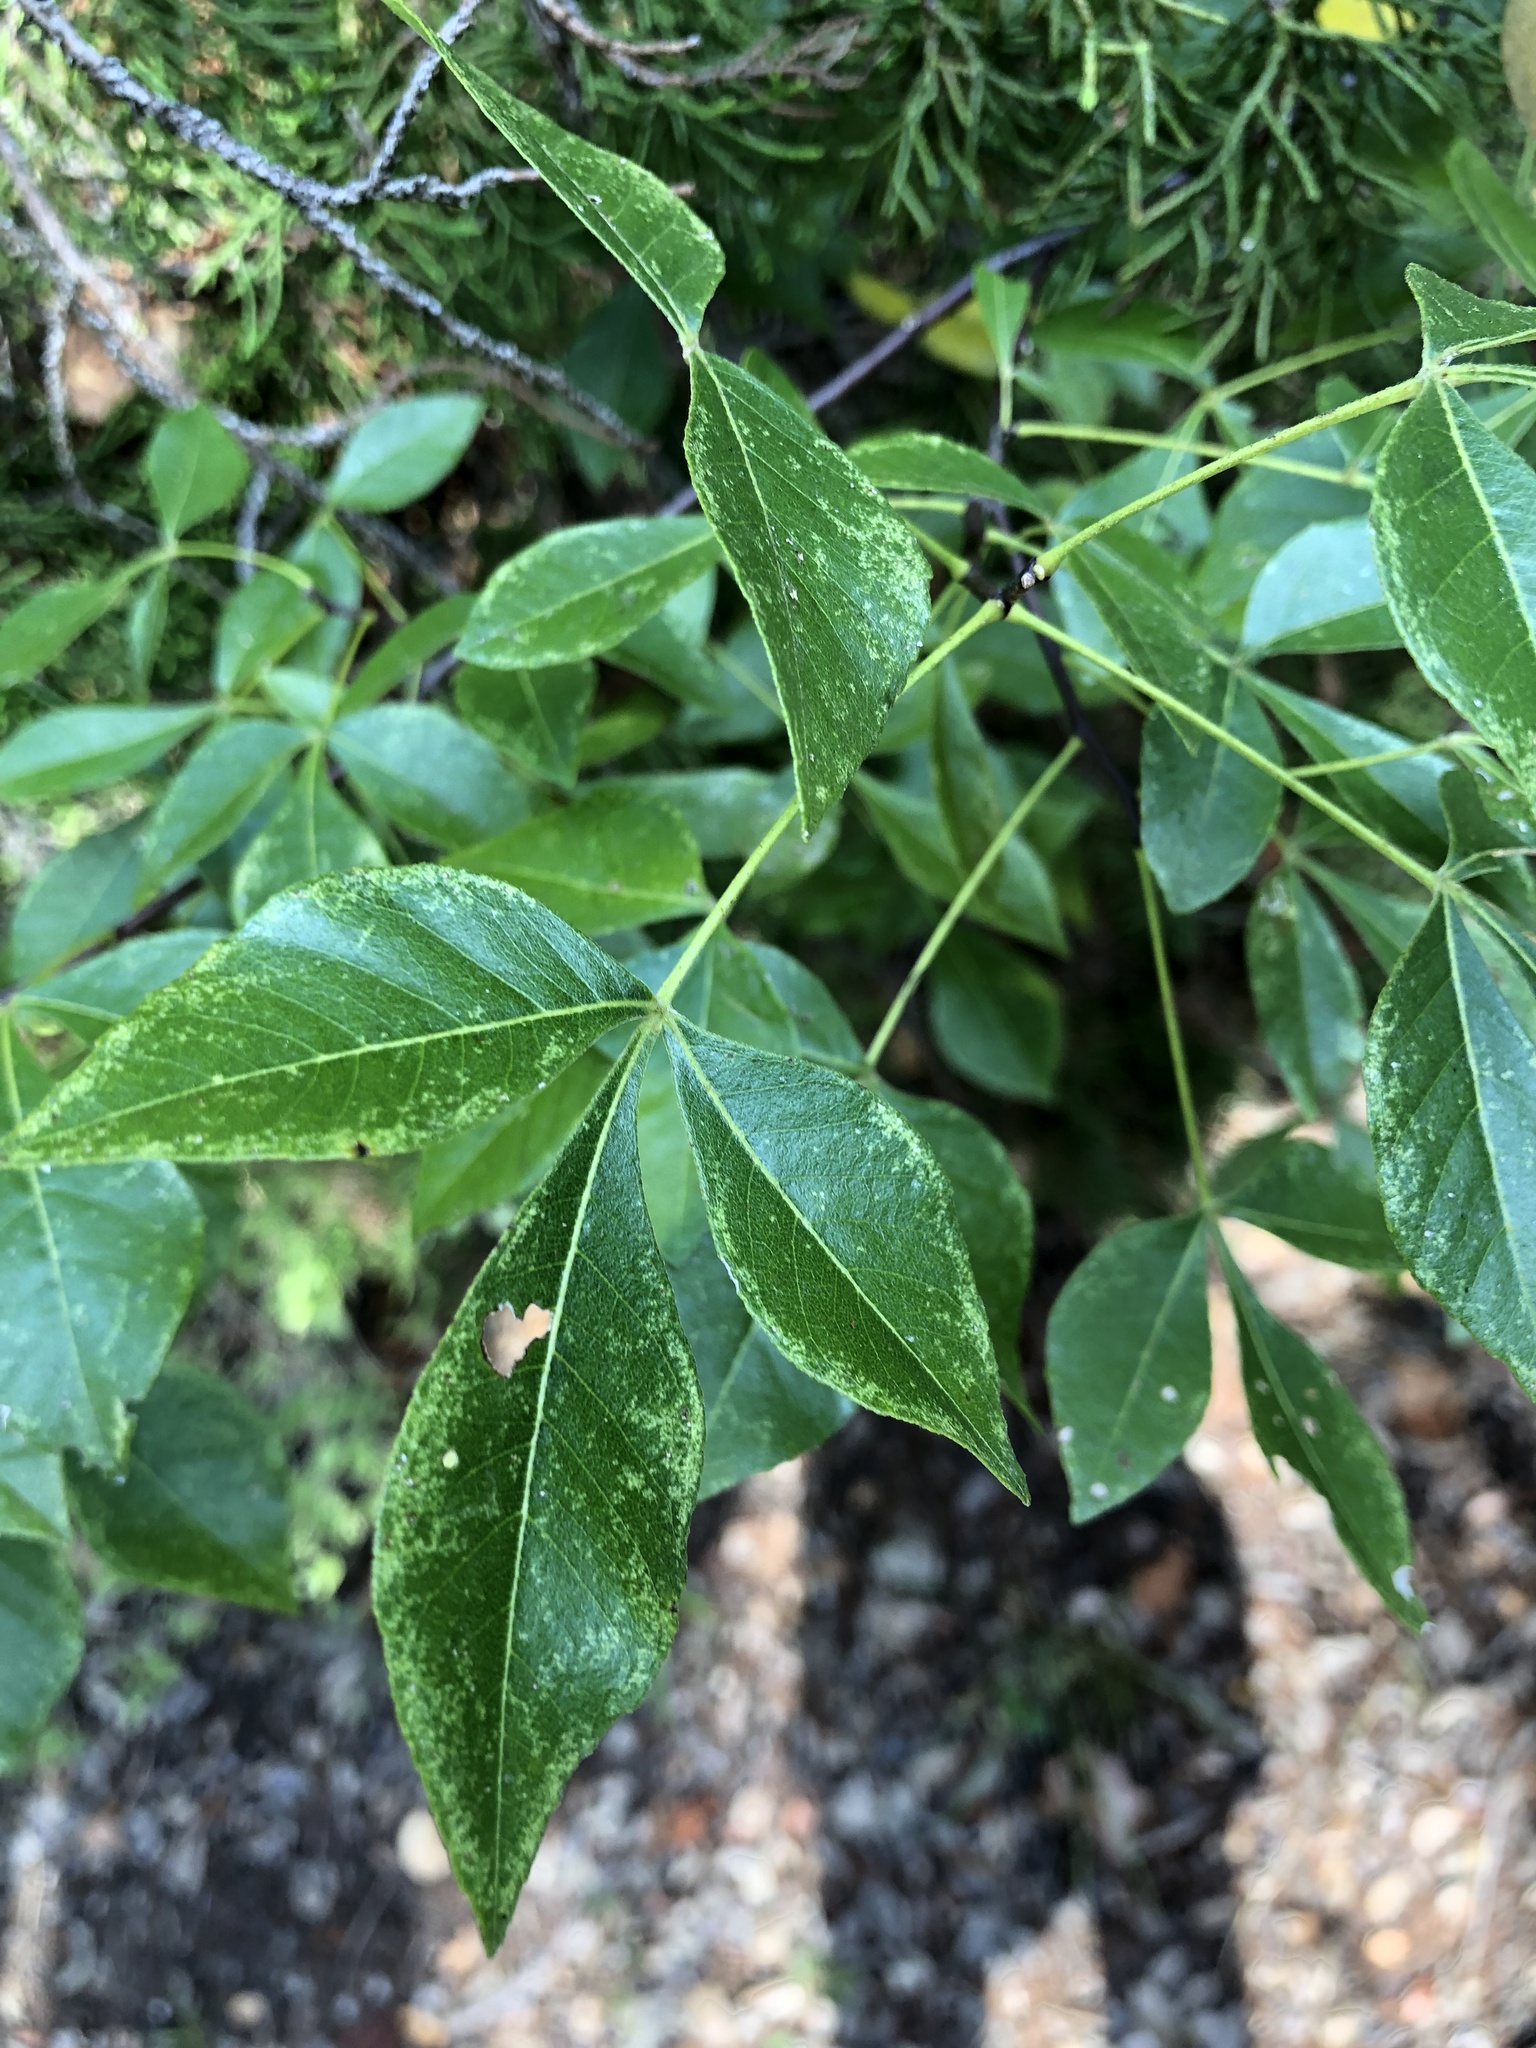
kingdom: Plantae
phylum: Tracheophyta
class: Magnoliopsida
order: Sapindales
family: Rutaceae
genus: Ptelea
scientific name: Ptelea trifoliata
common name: Common hop-tree
